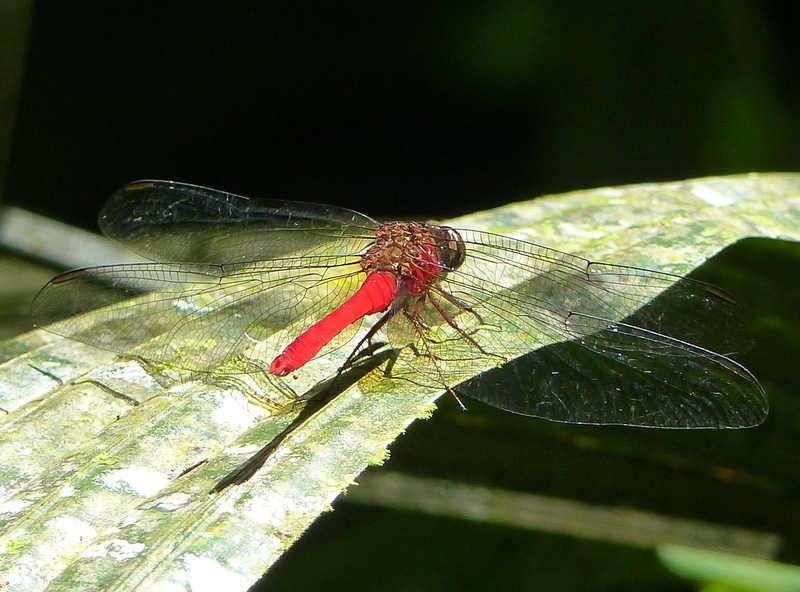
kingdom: Animalia
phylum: Arthropoda
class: Insecta
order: Odonata
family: Libellulidae
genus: Rhodopygia
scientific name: Rhodopygia hinei
